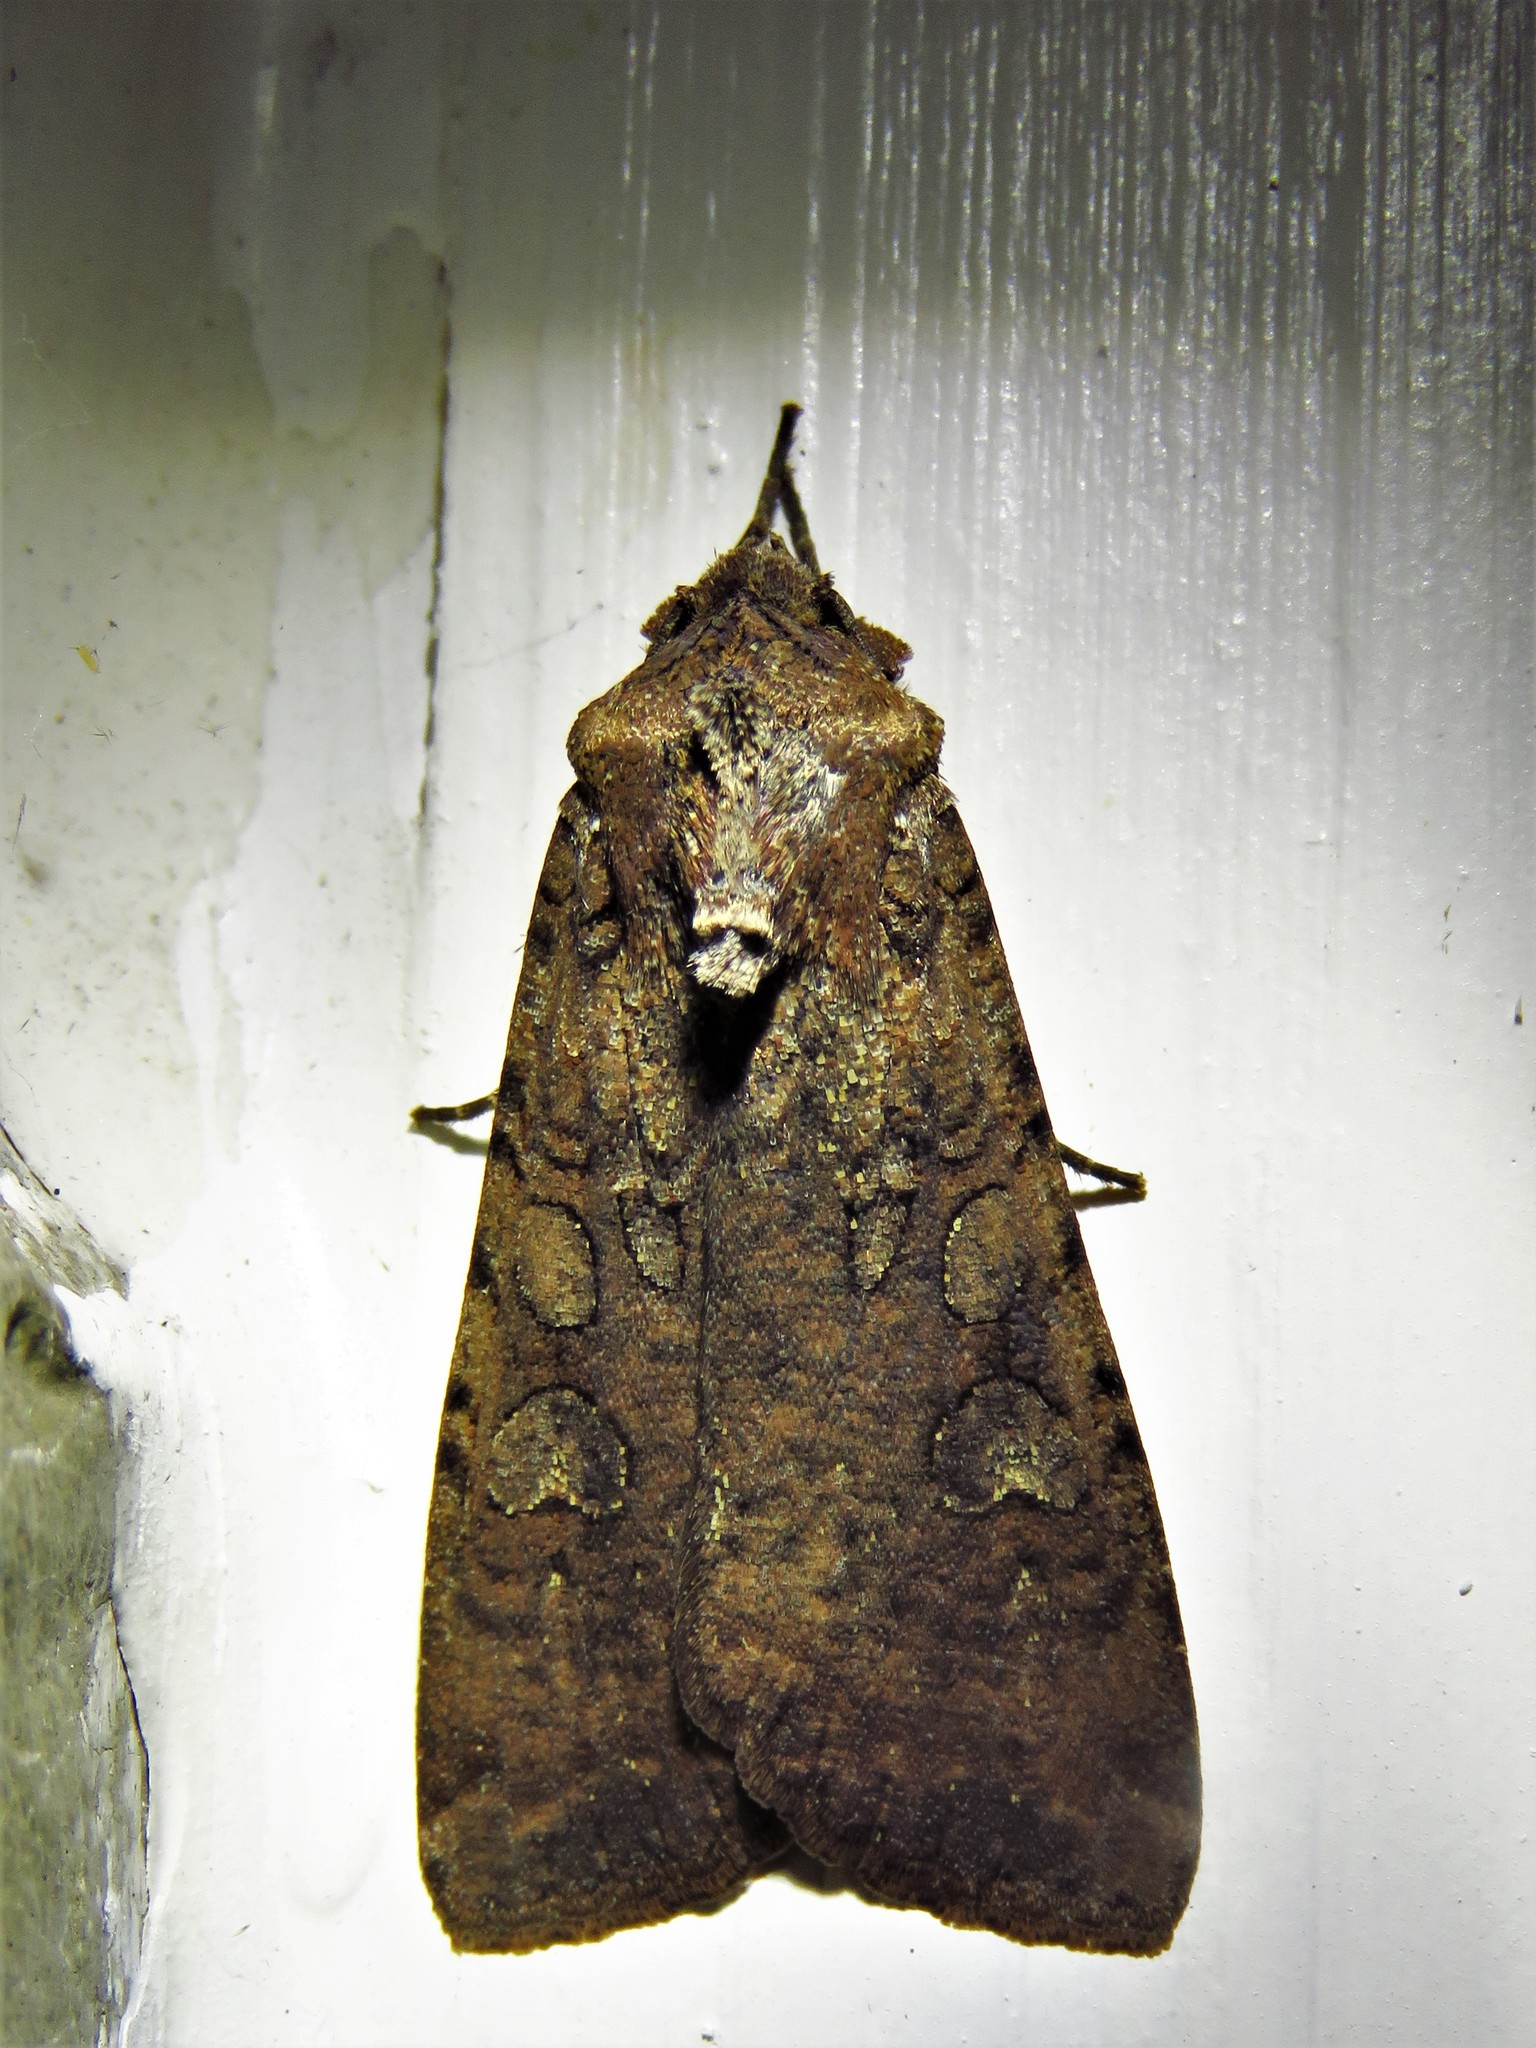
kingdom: Animalia
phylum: Arthropoda
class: Insecta
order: Lepidoptera
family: Noctuidae
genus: Peridroma
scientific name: Peridroma saucia
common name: Pearly underwing
